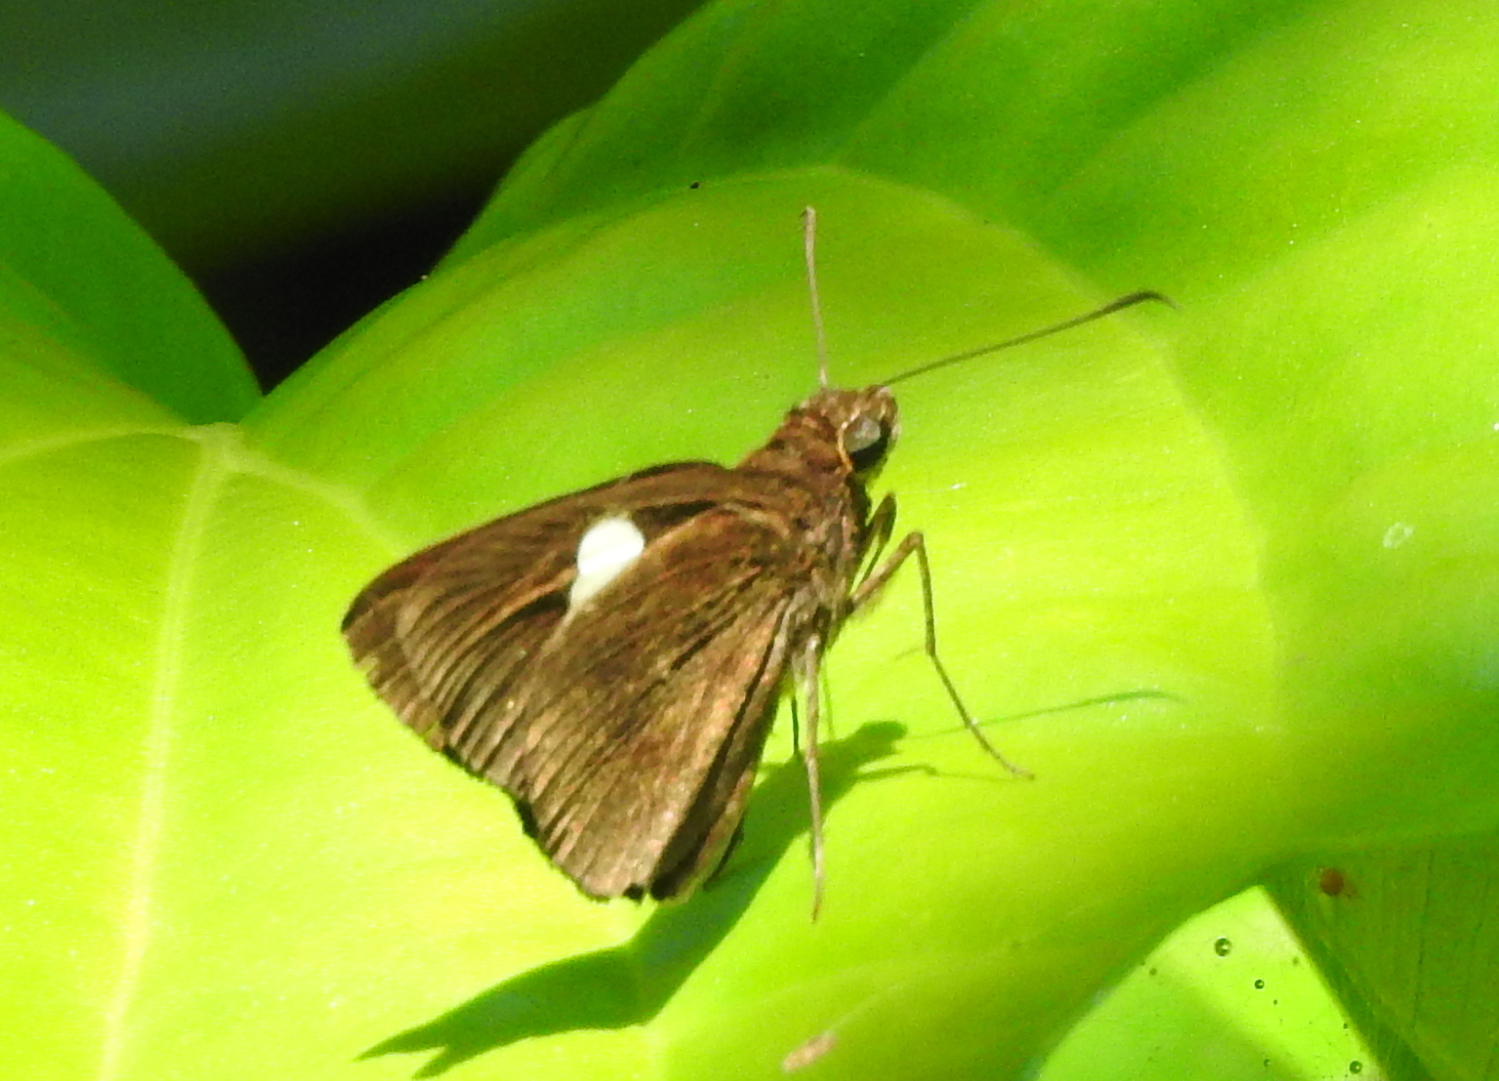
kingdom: Animalia
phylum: Arthropoda
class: Insecta
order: Lepidoptera
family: Hesperiidae
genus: Notocrypta
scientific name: Notocrypta paralysos
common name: Common banded demon
